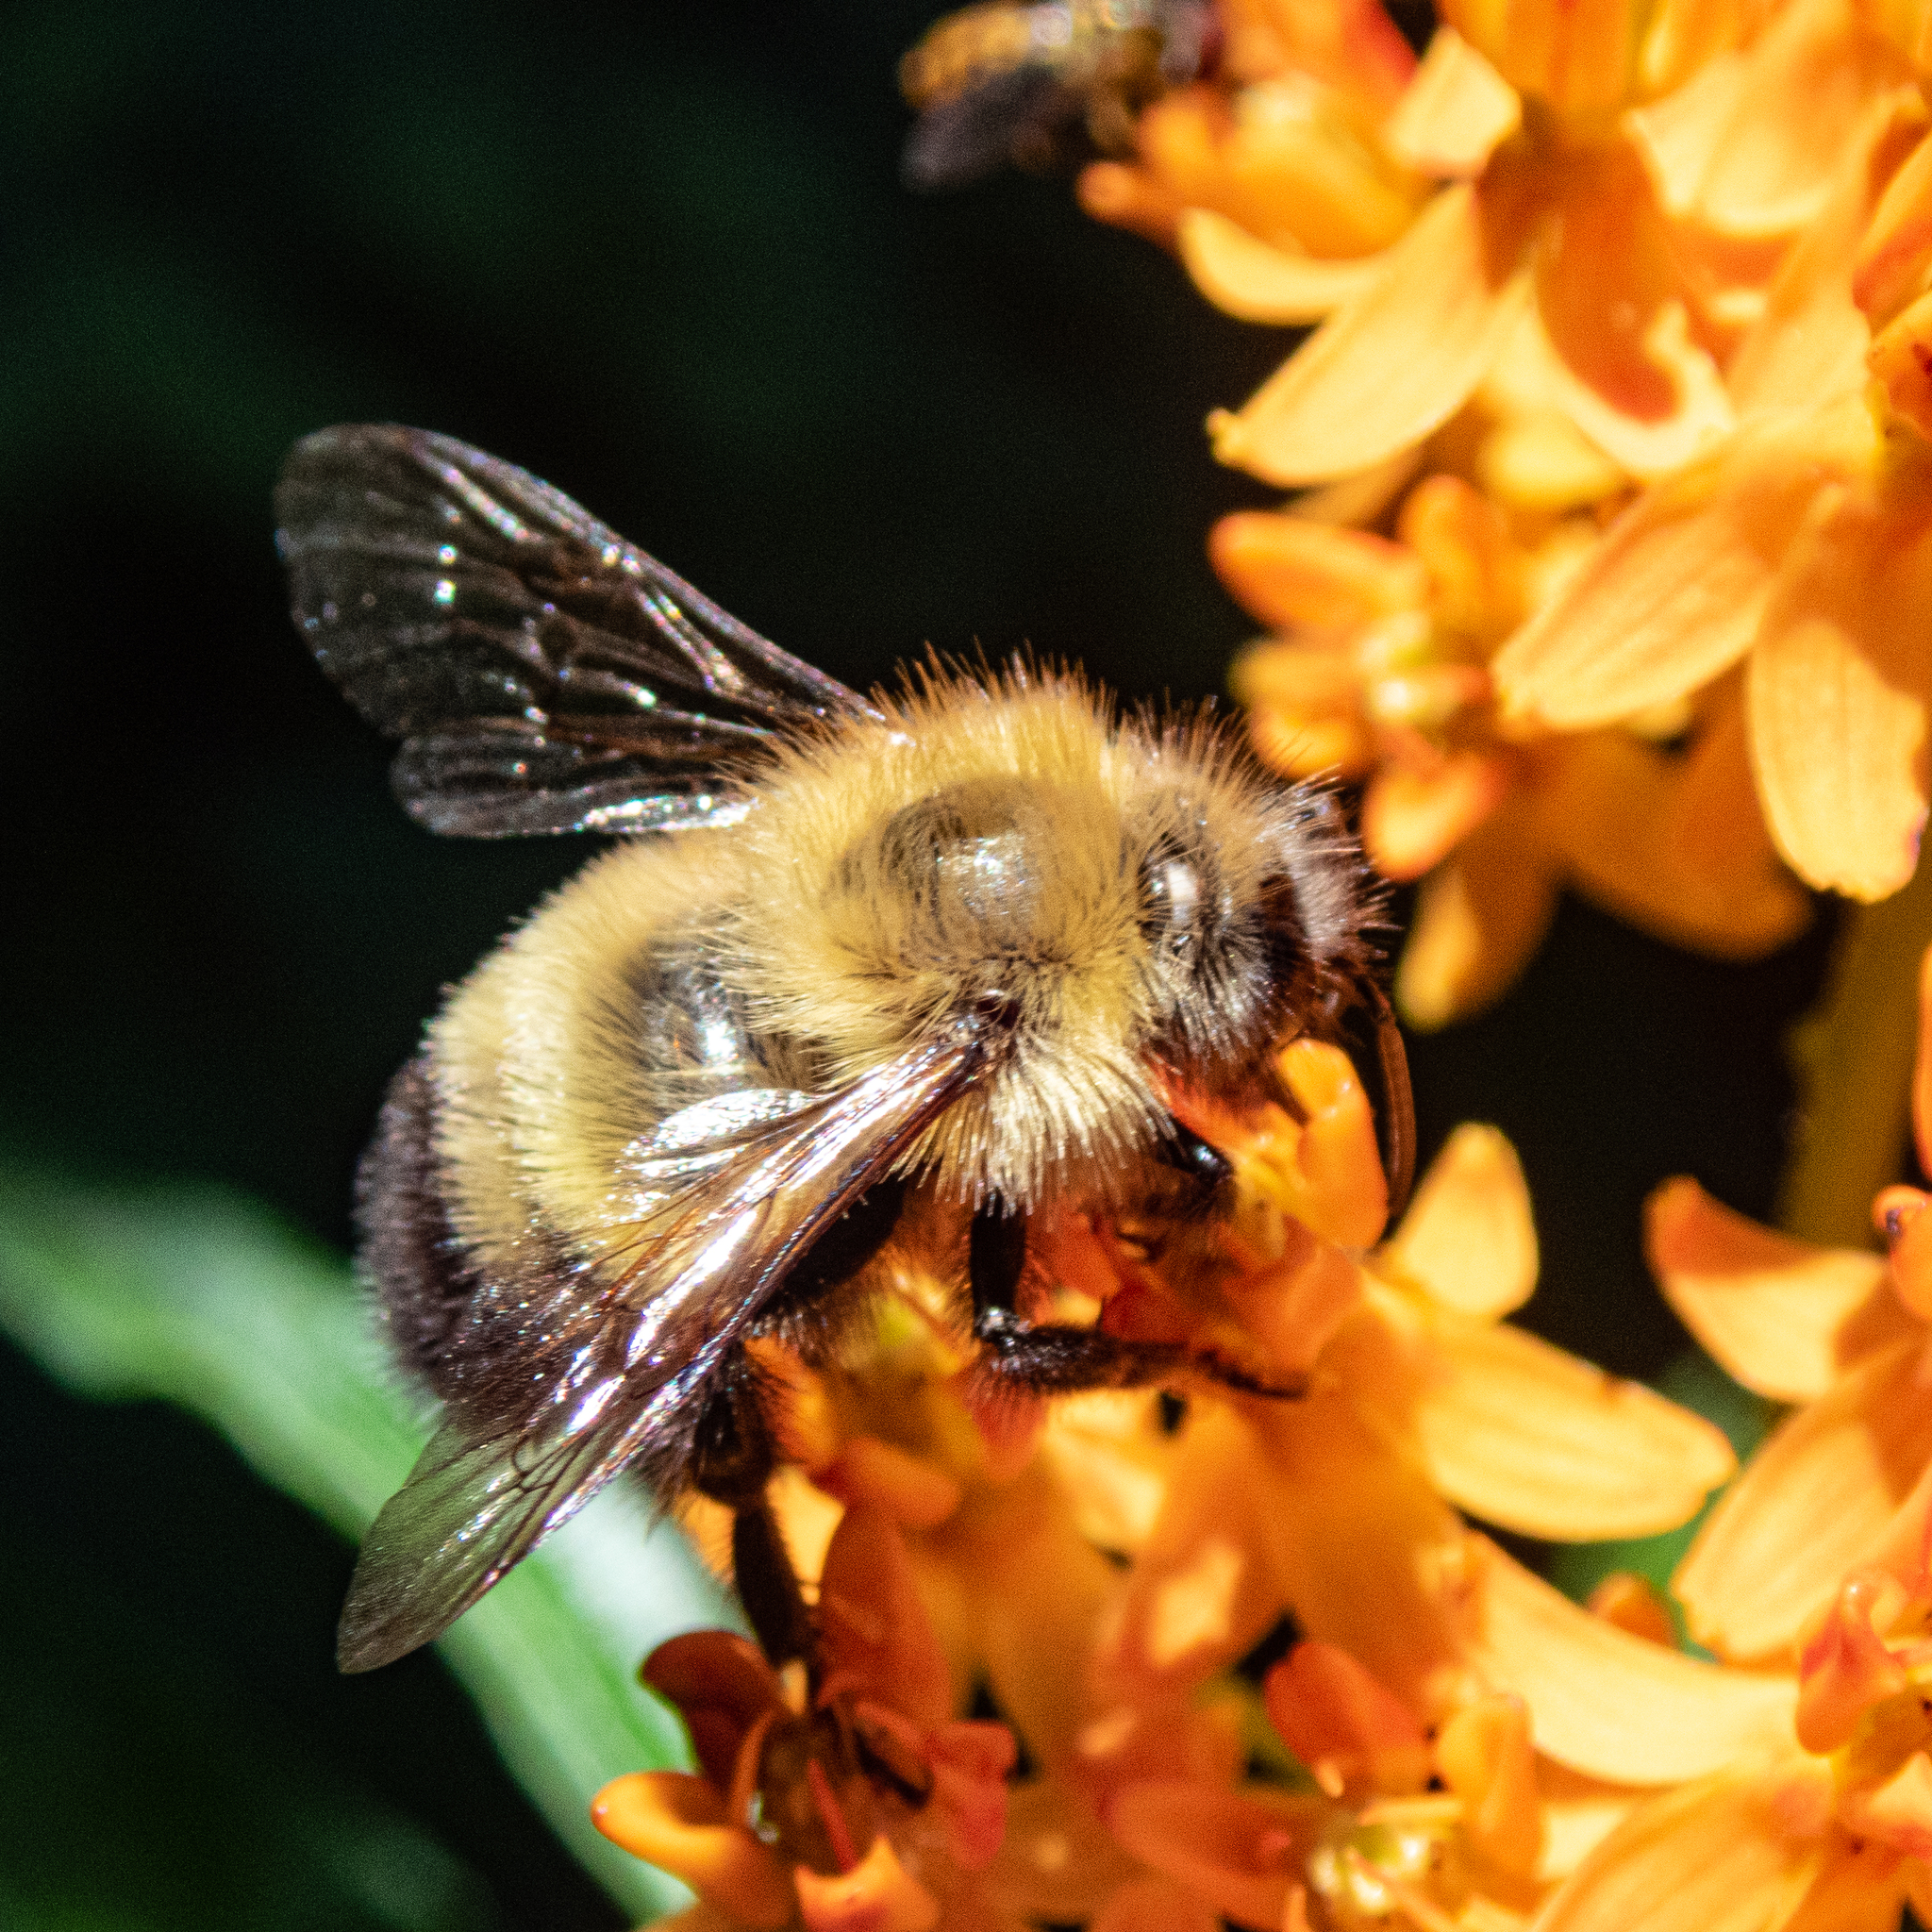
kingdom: Animalia
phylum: Arthropoda
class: Insecta
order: Hymenoptera
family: Apidae
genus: Bombus
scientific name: Bombus perplexus
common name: Confusing bumble bee
